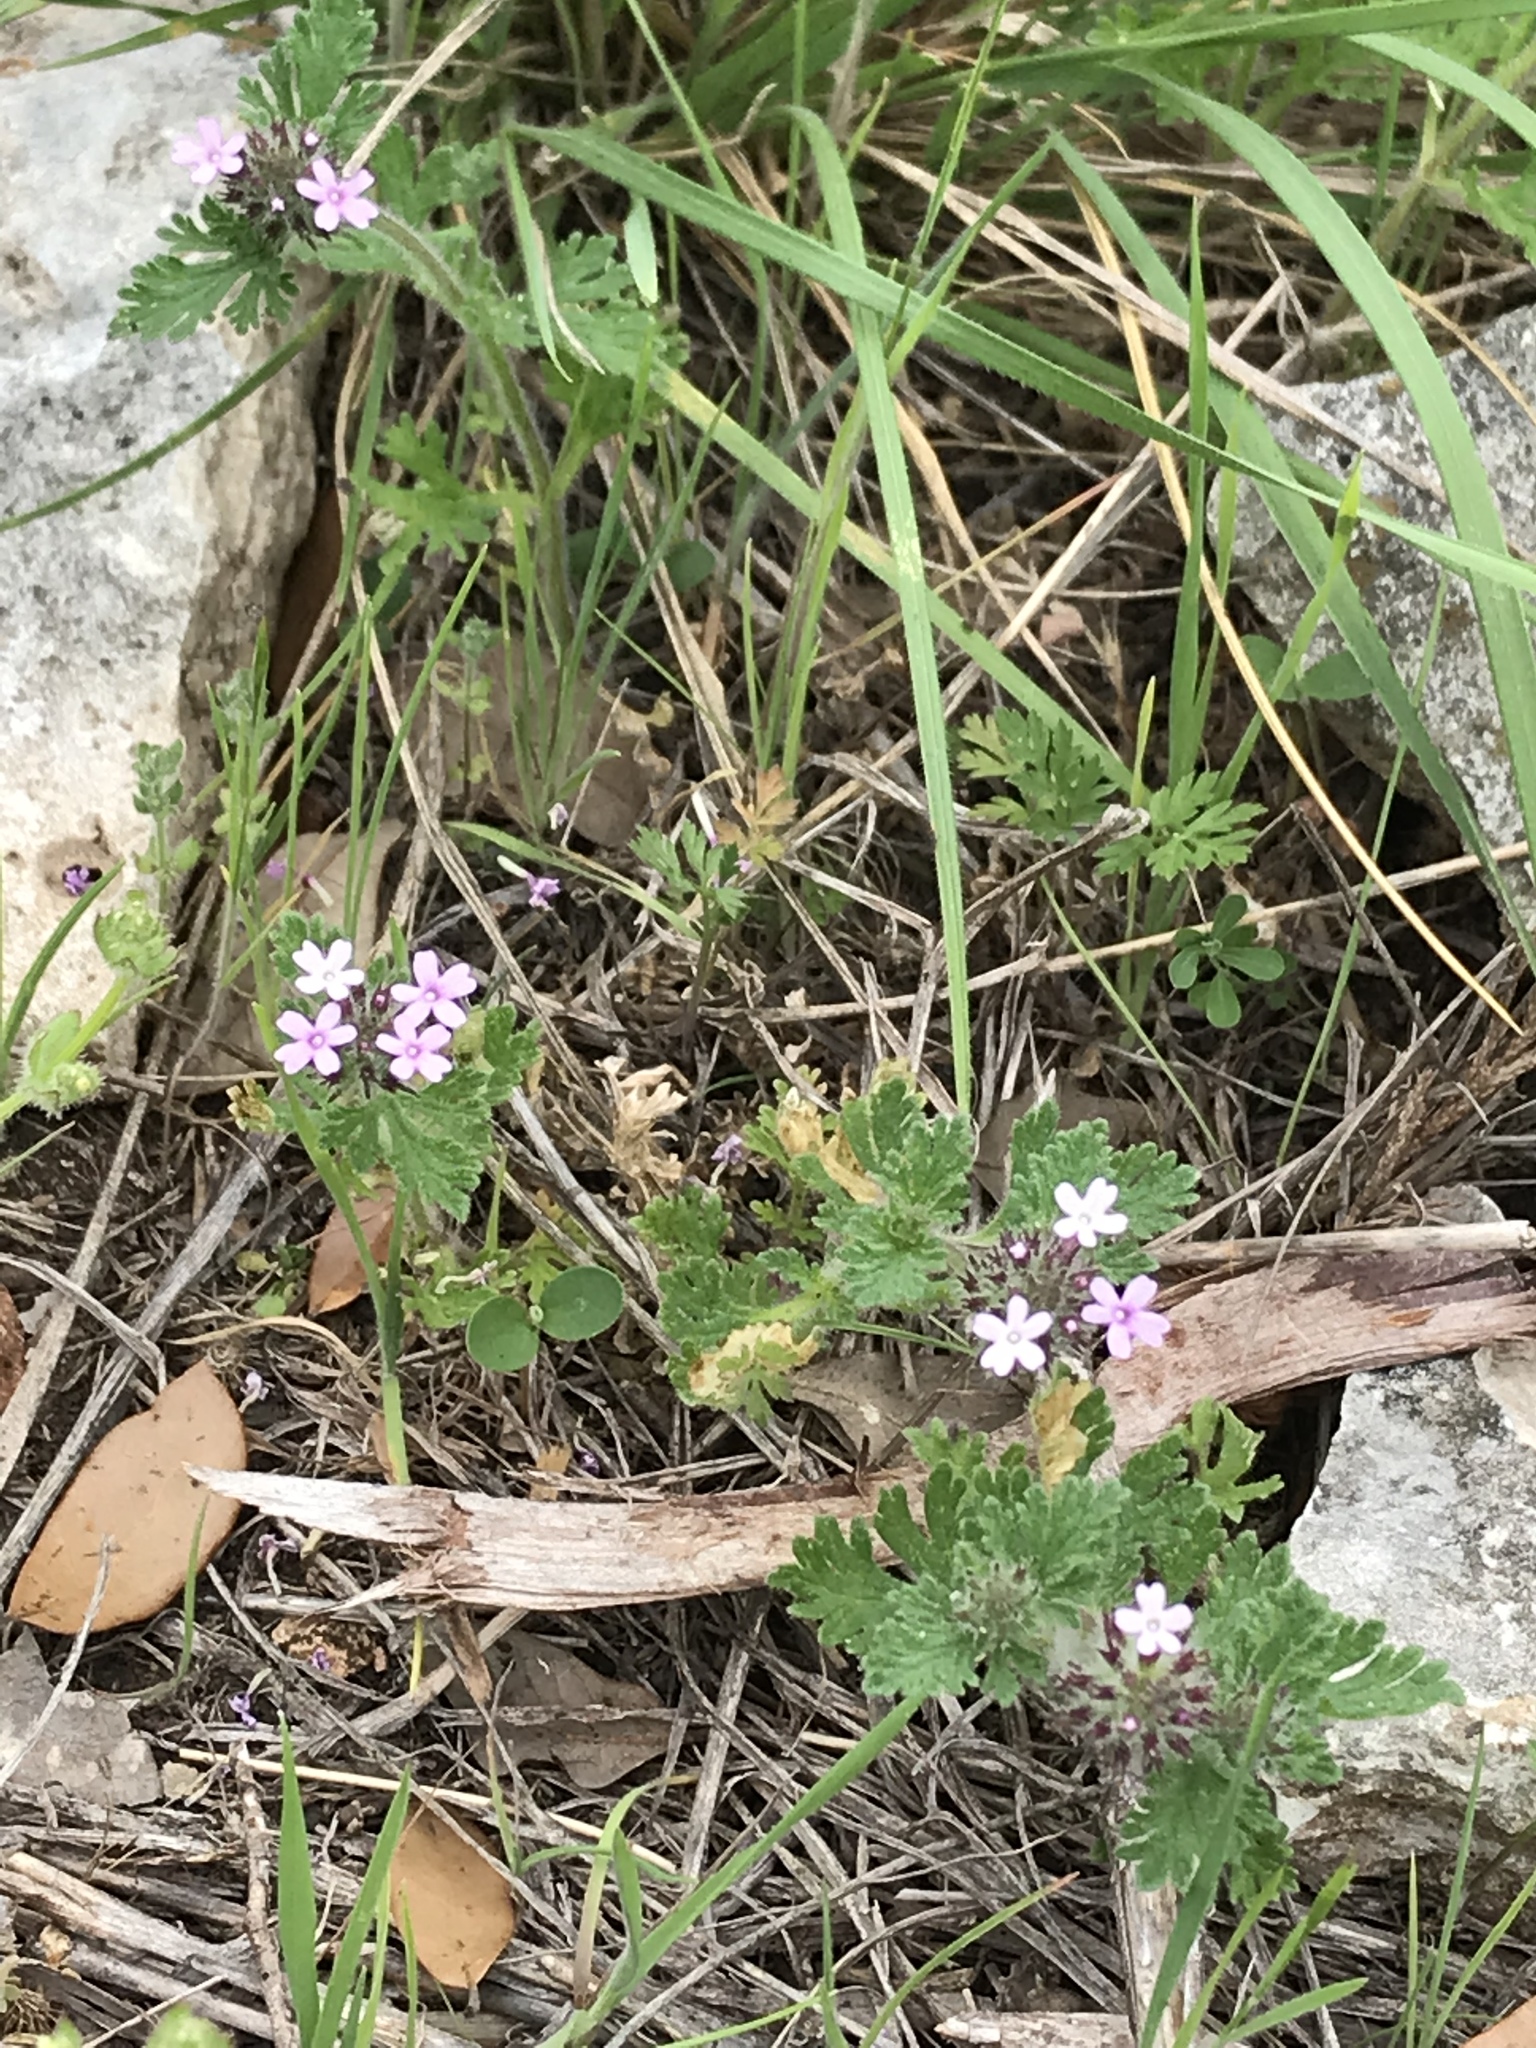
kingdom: Plantae
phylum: Tracheophyta
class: Magnoliopsida
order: Lamiales
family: Verbenaceae
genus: Verbena
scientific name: Verbena pumila
